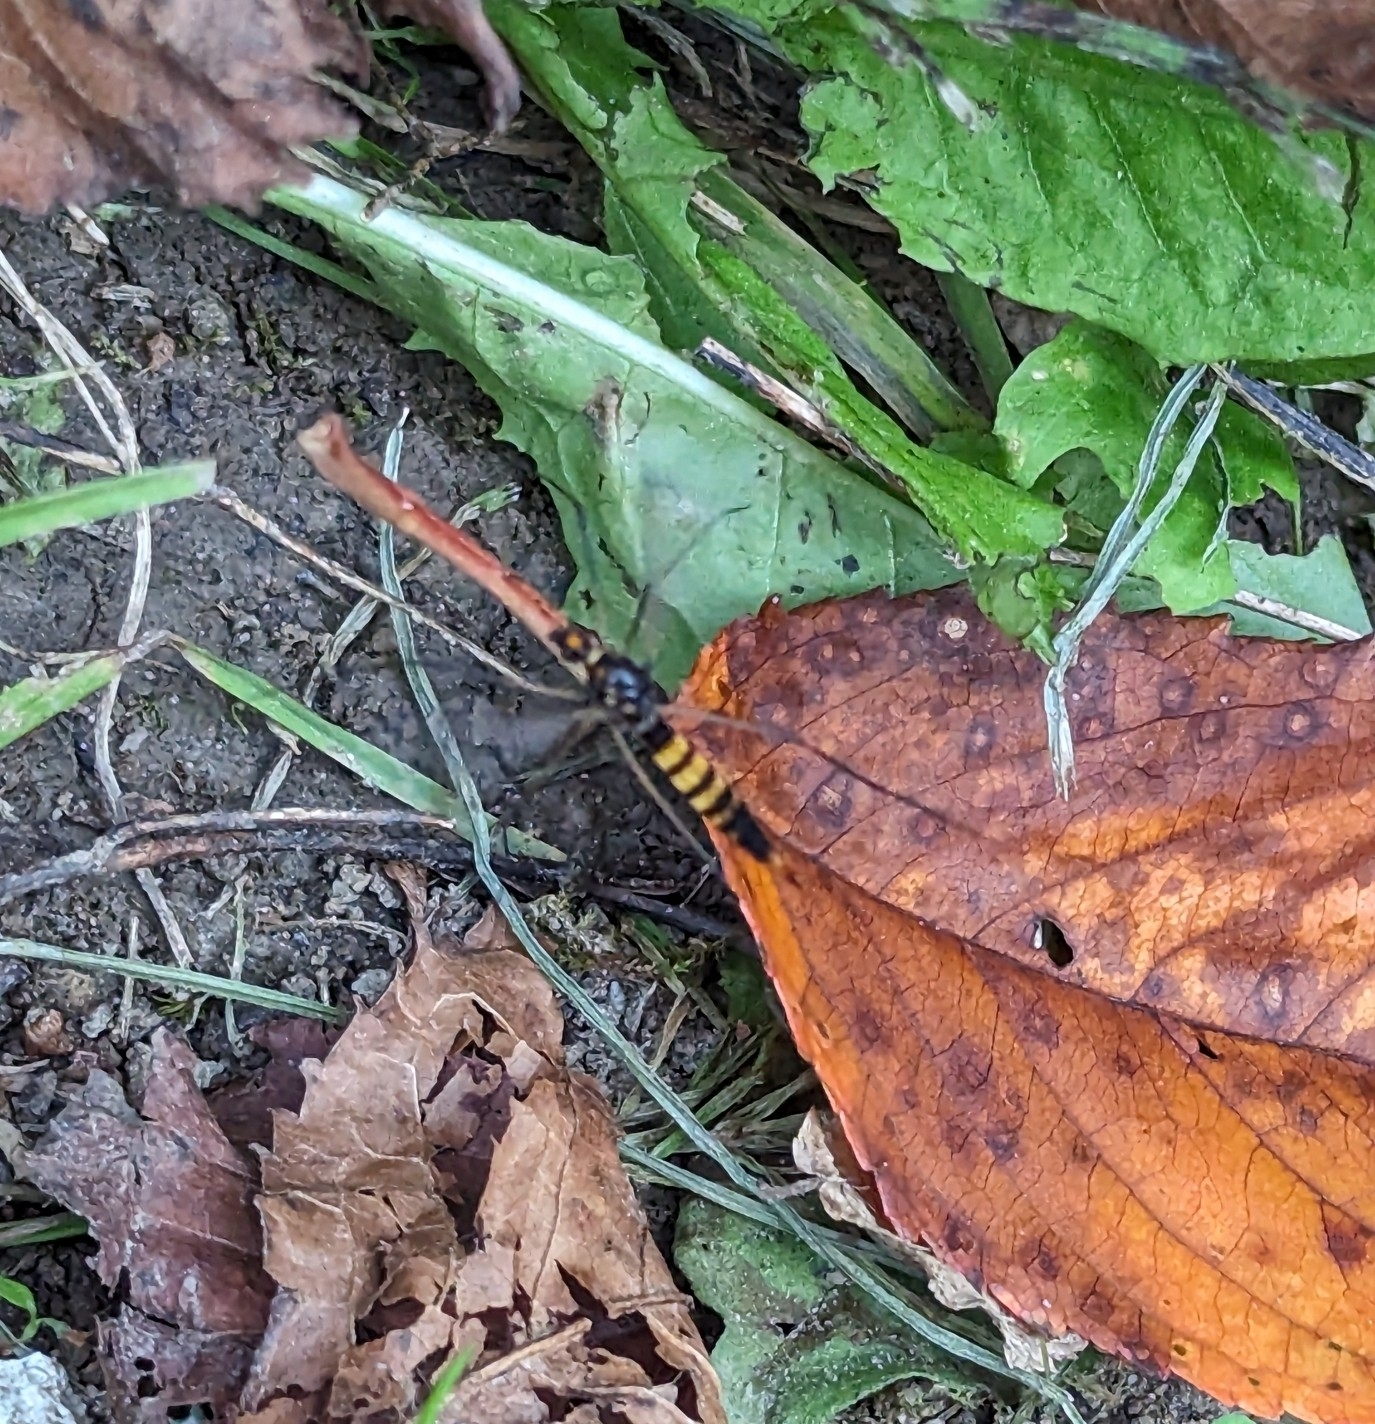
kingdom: Animalia
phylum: Arthropoda
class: Insecta
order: Diptera
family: Tipulidae
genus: Nephrotoma
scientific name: Nephrotoma crocata
